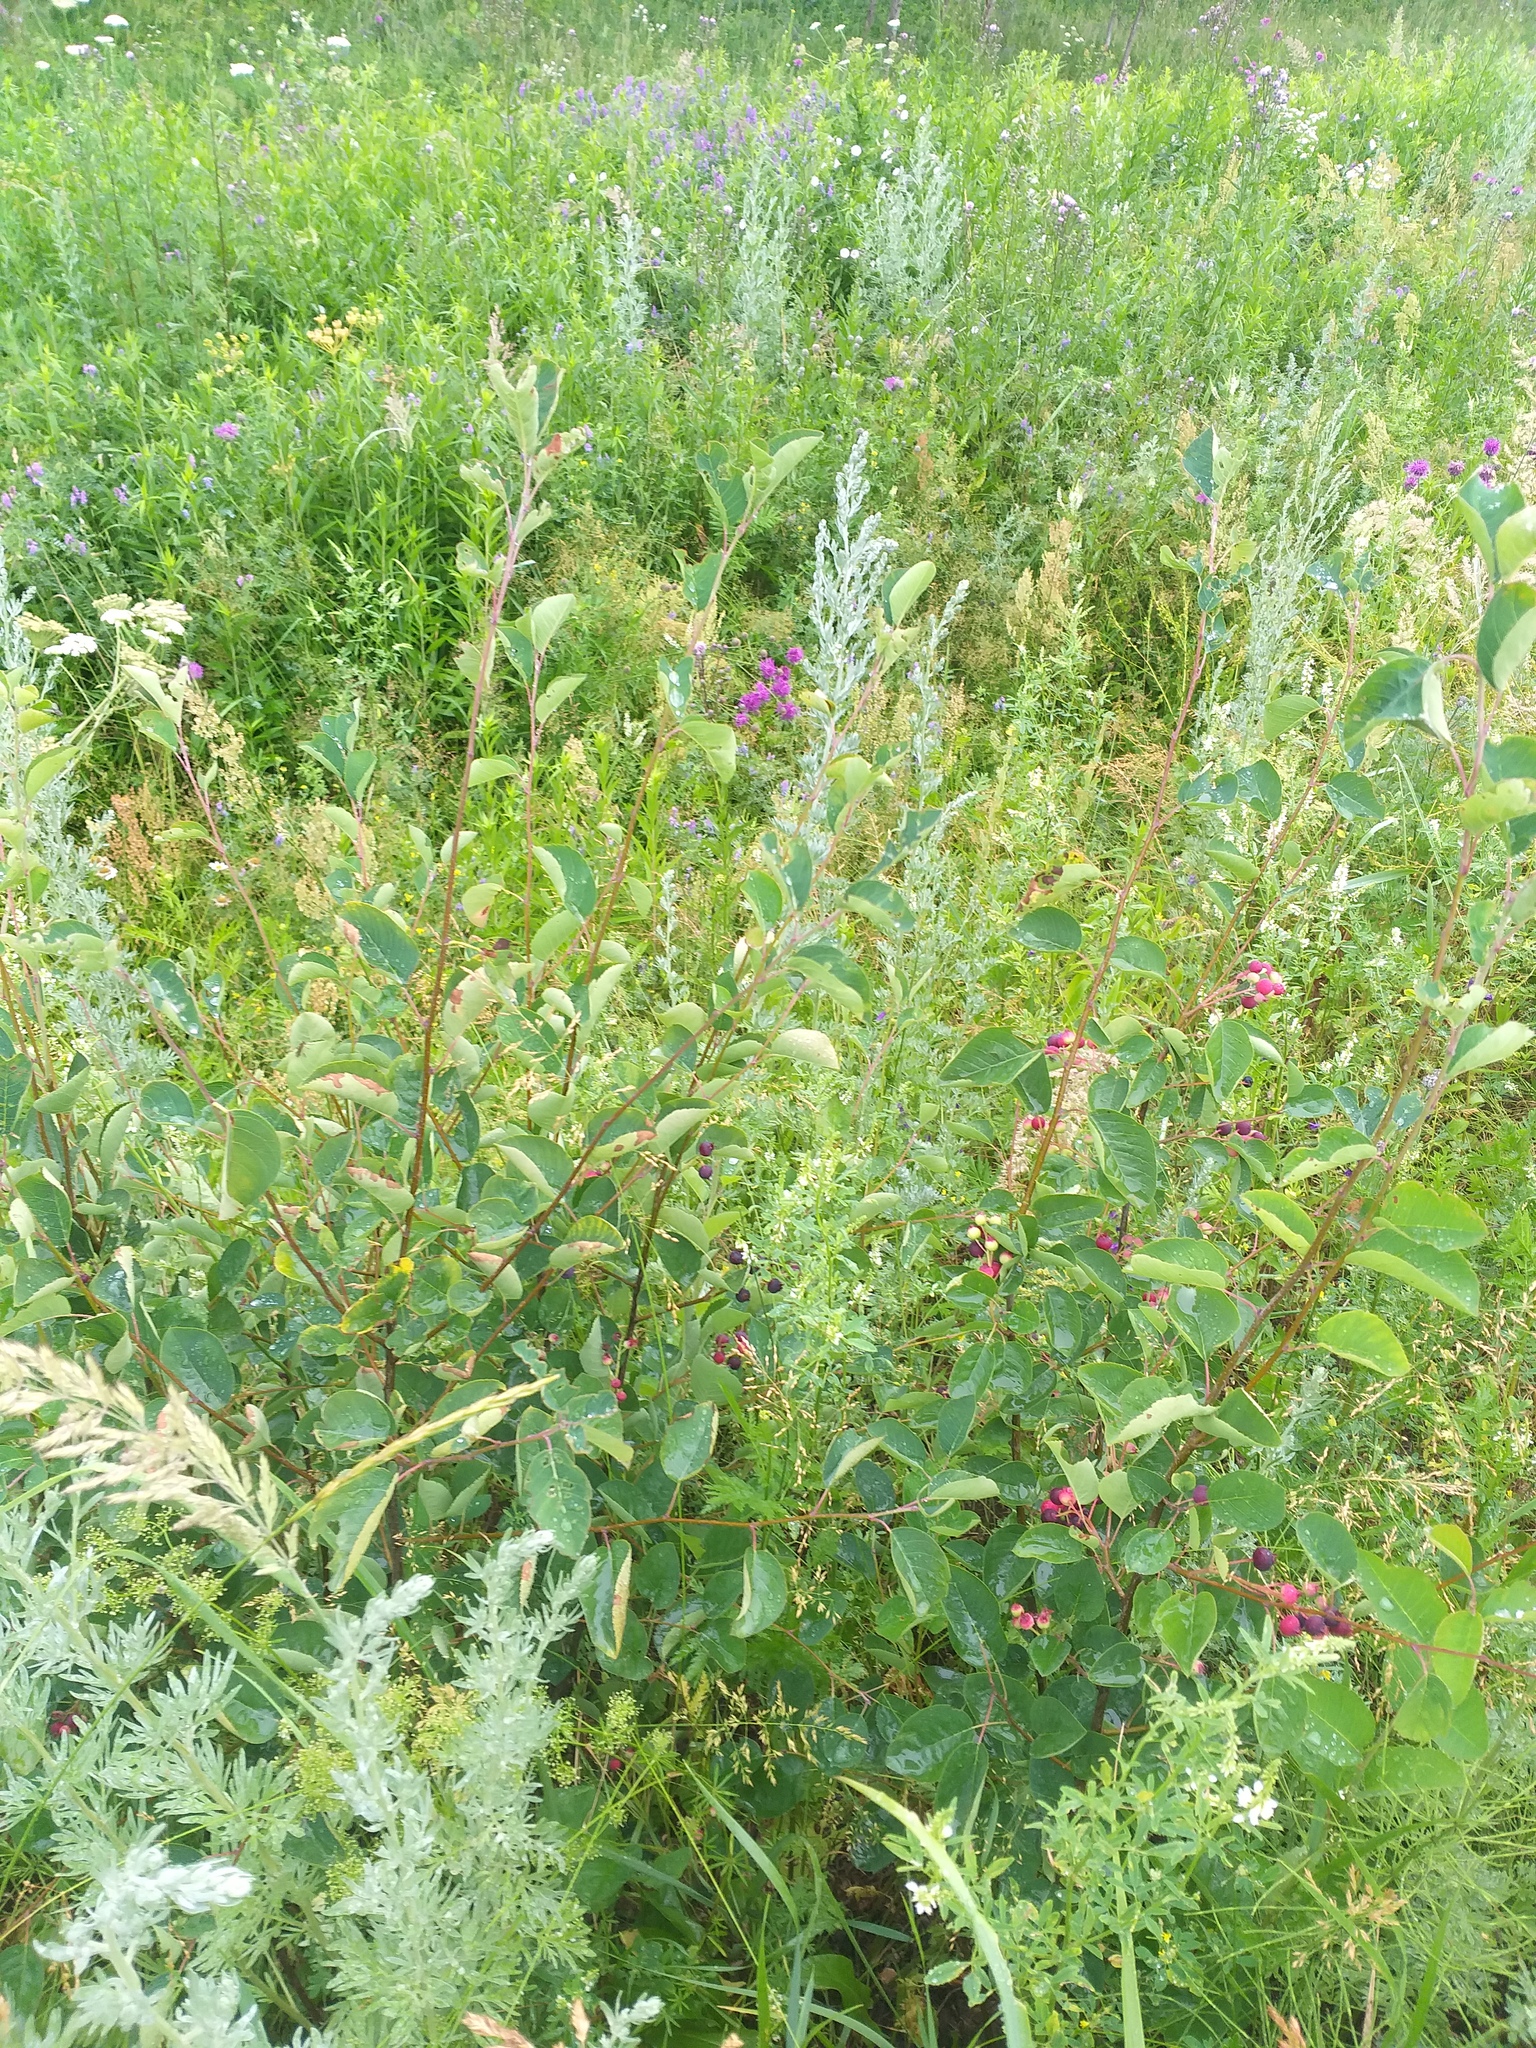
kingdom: Plantae
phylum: Tracheophyta
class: Magnoliopsida
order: Rosales
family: Rosaceae
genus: Amelanchier
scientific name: Amelanchier
